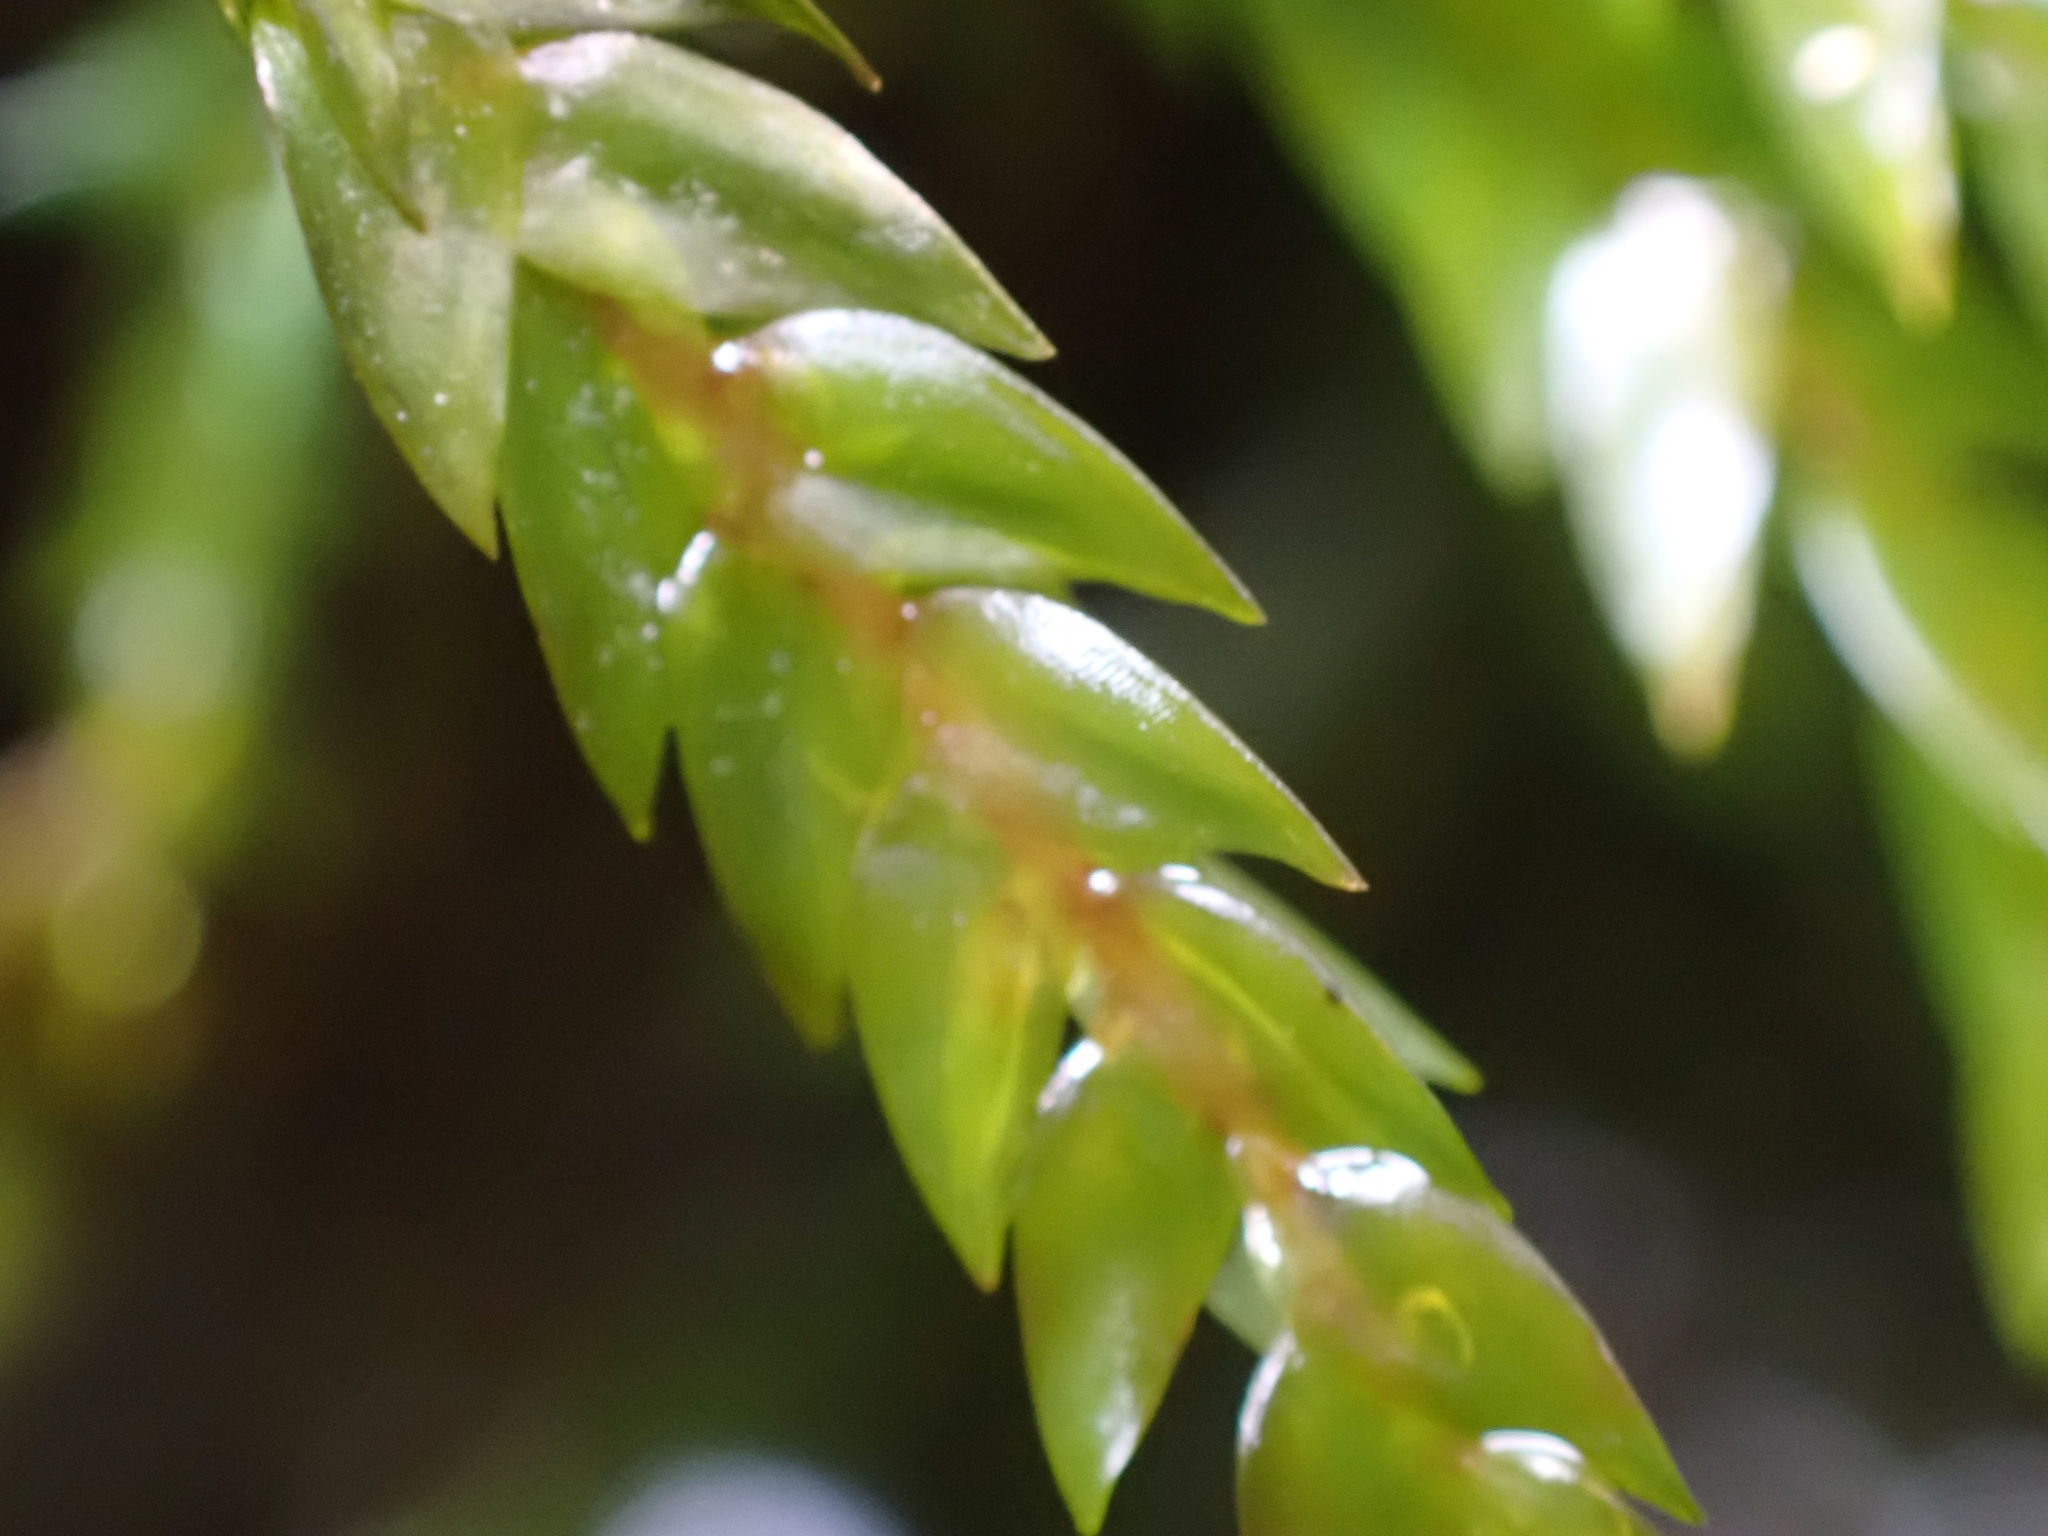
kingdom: Plantae
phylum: Bryophyta
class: Bryopsida
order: Hypnales
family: Fontinalaceae
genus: Fontinalis
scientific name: Fontinalis antipyretica
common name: Greater water-moss
